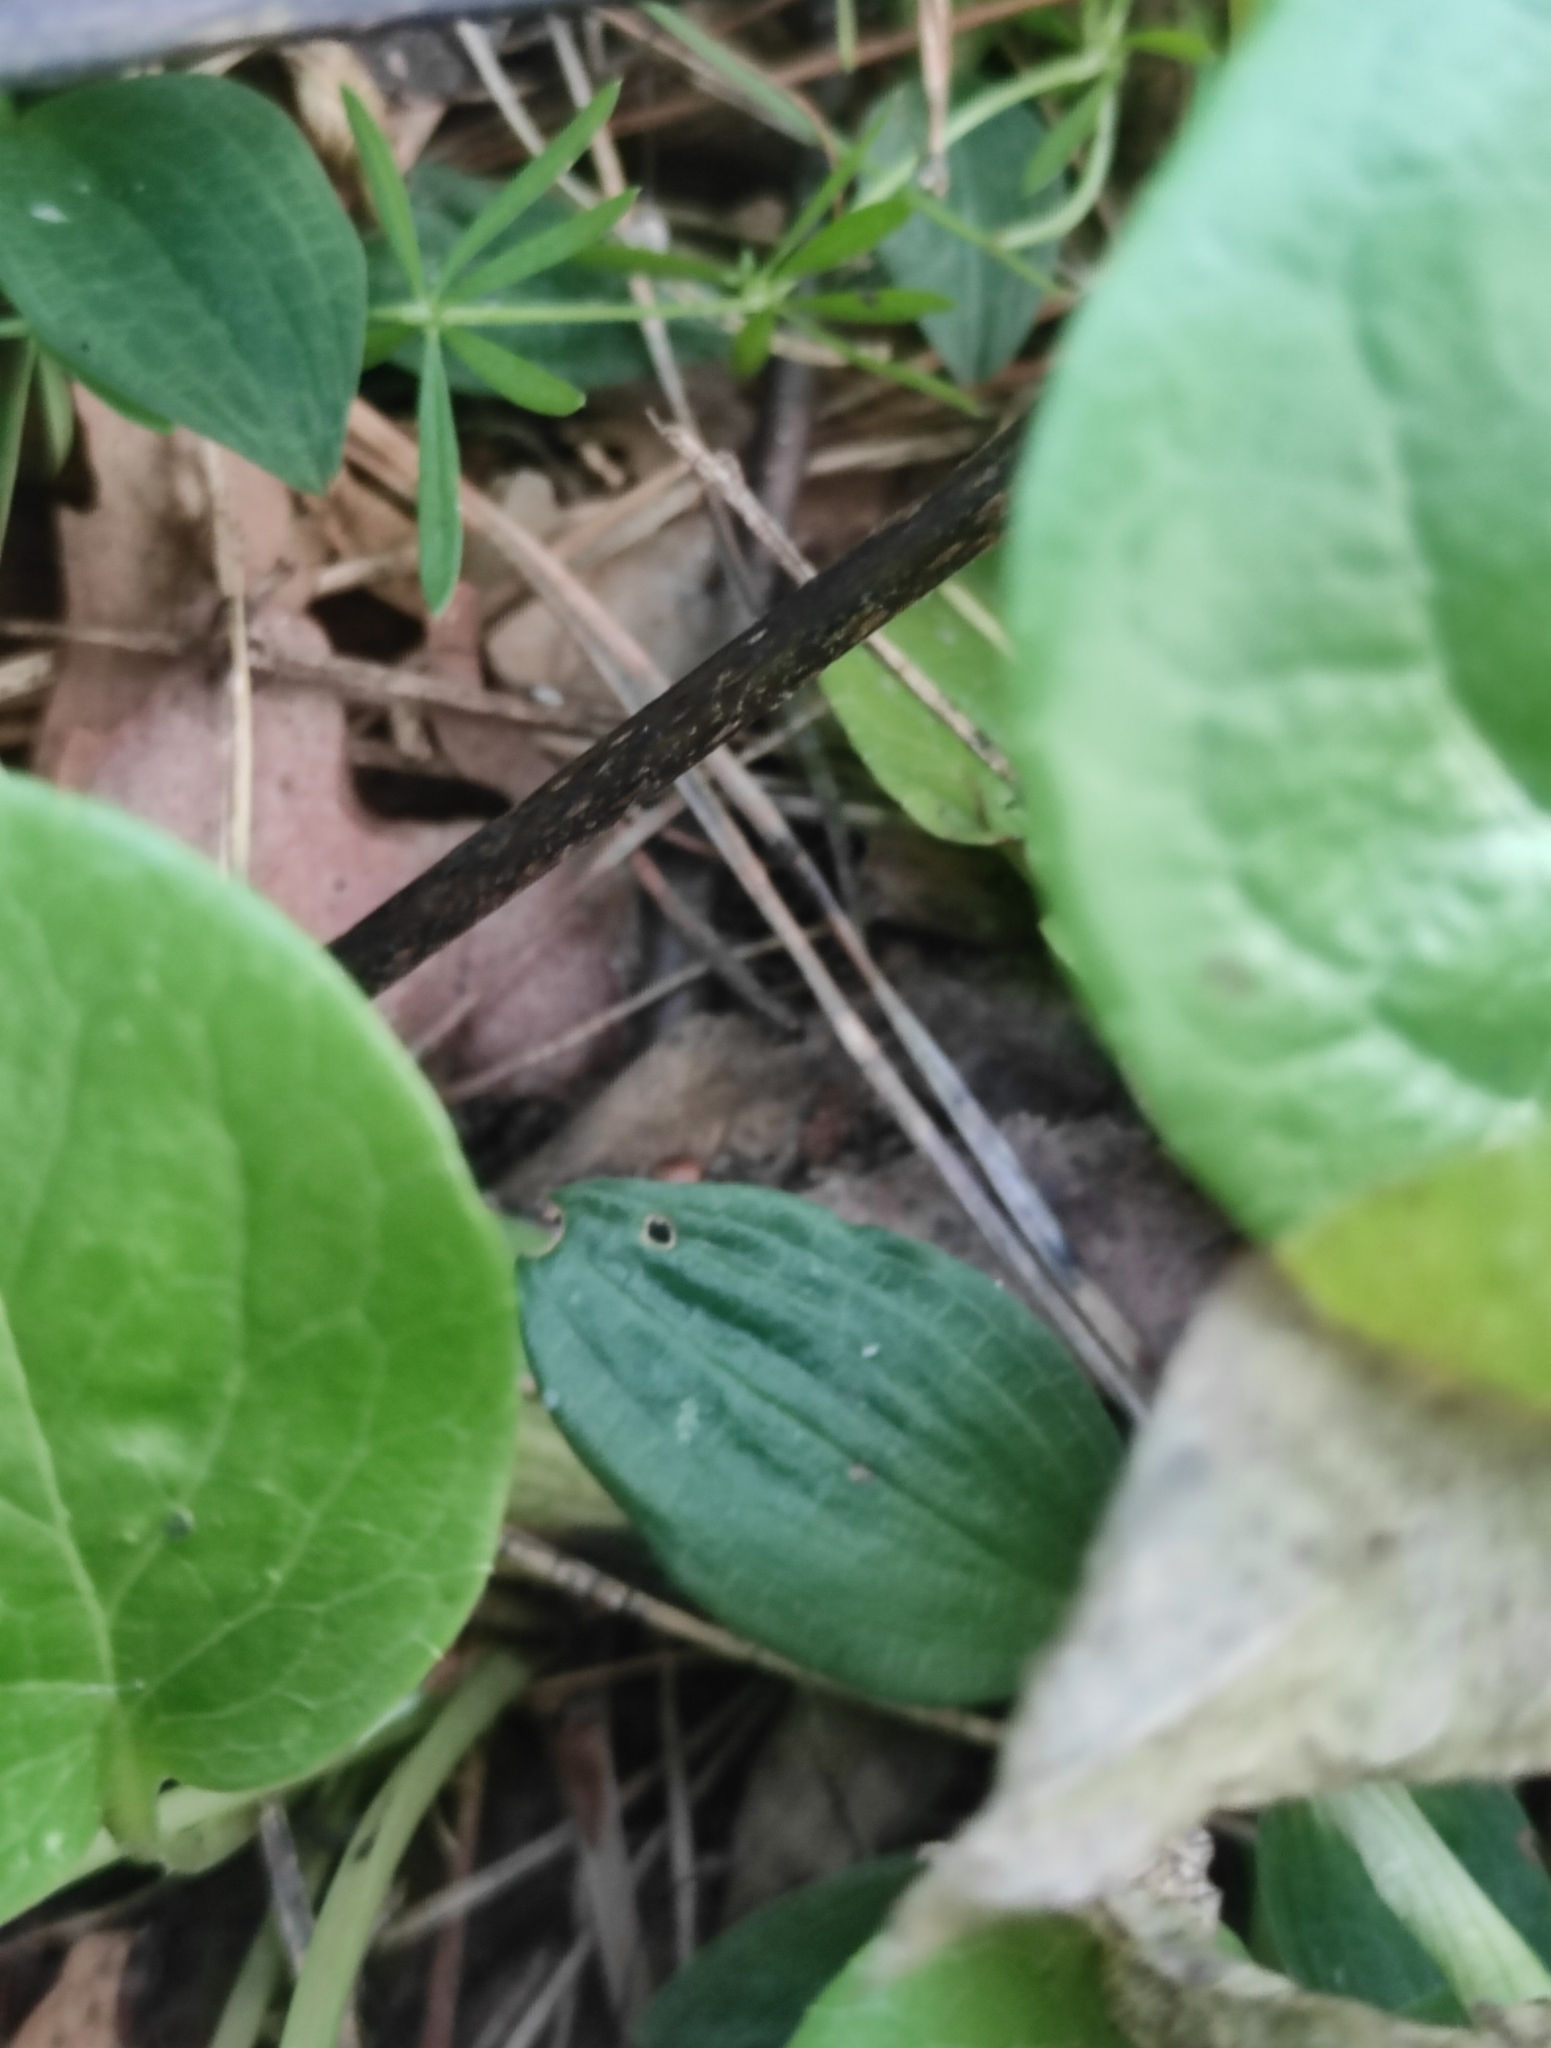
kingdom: Plantae
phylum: Tracheophyta
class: Liliopsida
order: Asparagales
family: Orchidaceae
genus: Goodyera
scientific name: Goodyera repens
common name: Creeping lady's-tresses
